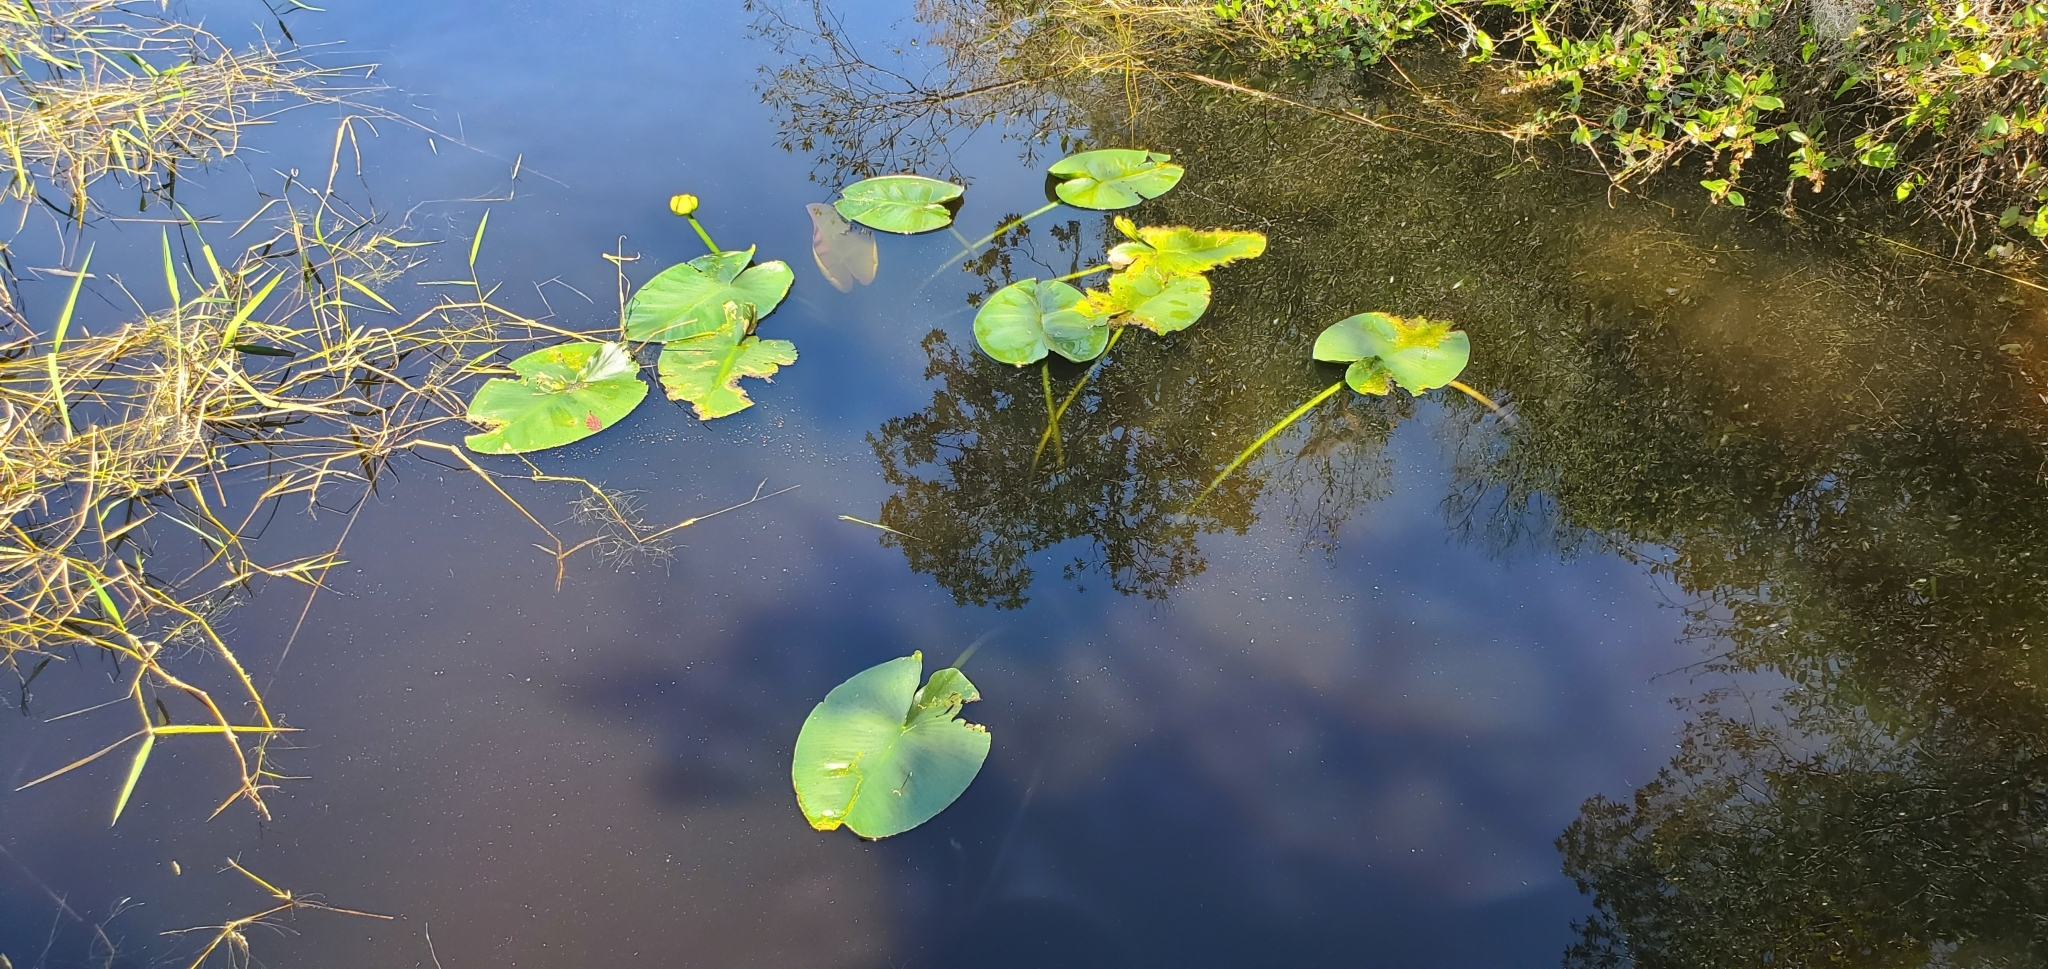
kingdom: Plantae
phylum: Tracheophyta
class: Magnoliopsida
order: Nymphaeales
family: Nymphaeaceae
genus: Nuphar
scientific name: Nuphar advena
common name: Spatter-dock
